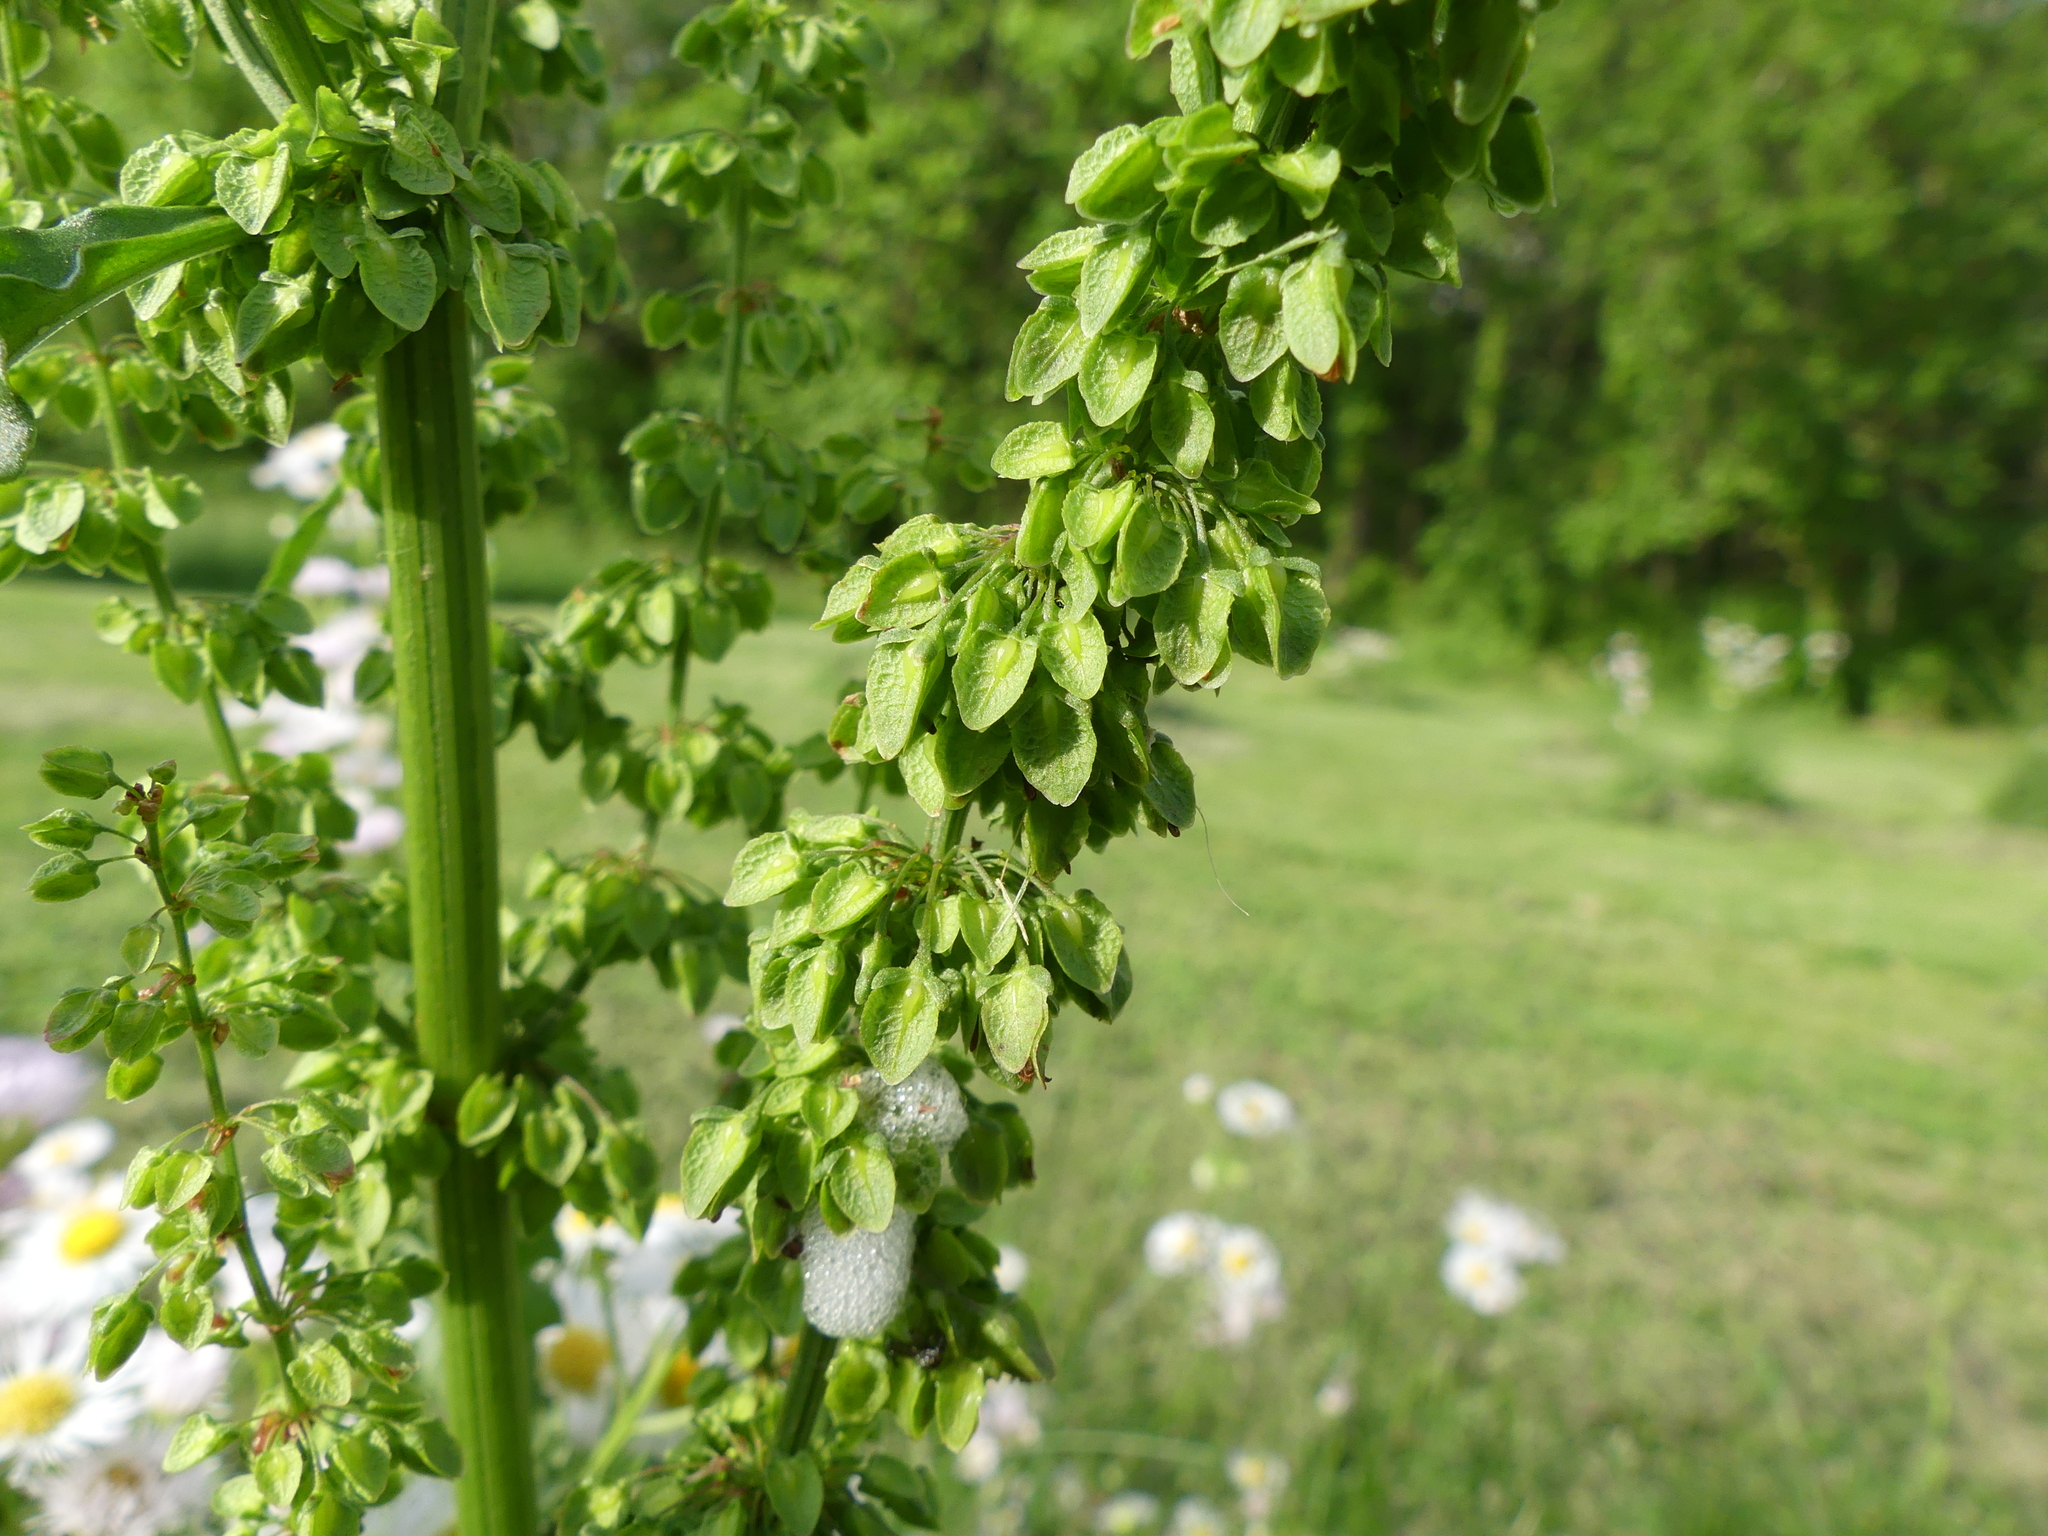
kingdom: Plantae
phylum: Tracheophyta
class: Magnoliopsida
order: Caryophyllales
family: Polygonaceae
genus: Rumex
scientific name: Rumex crispus
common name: Curled dock
